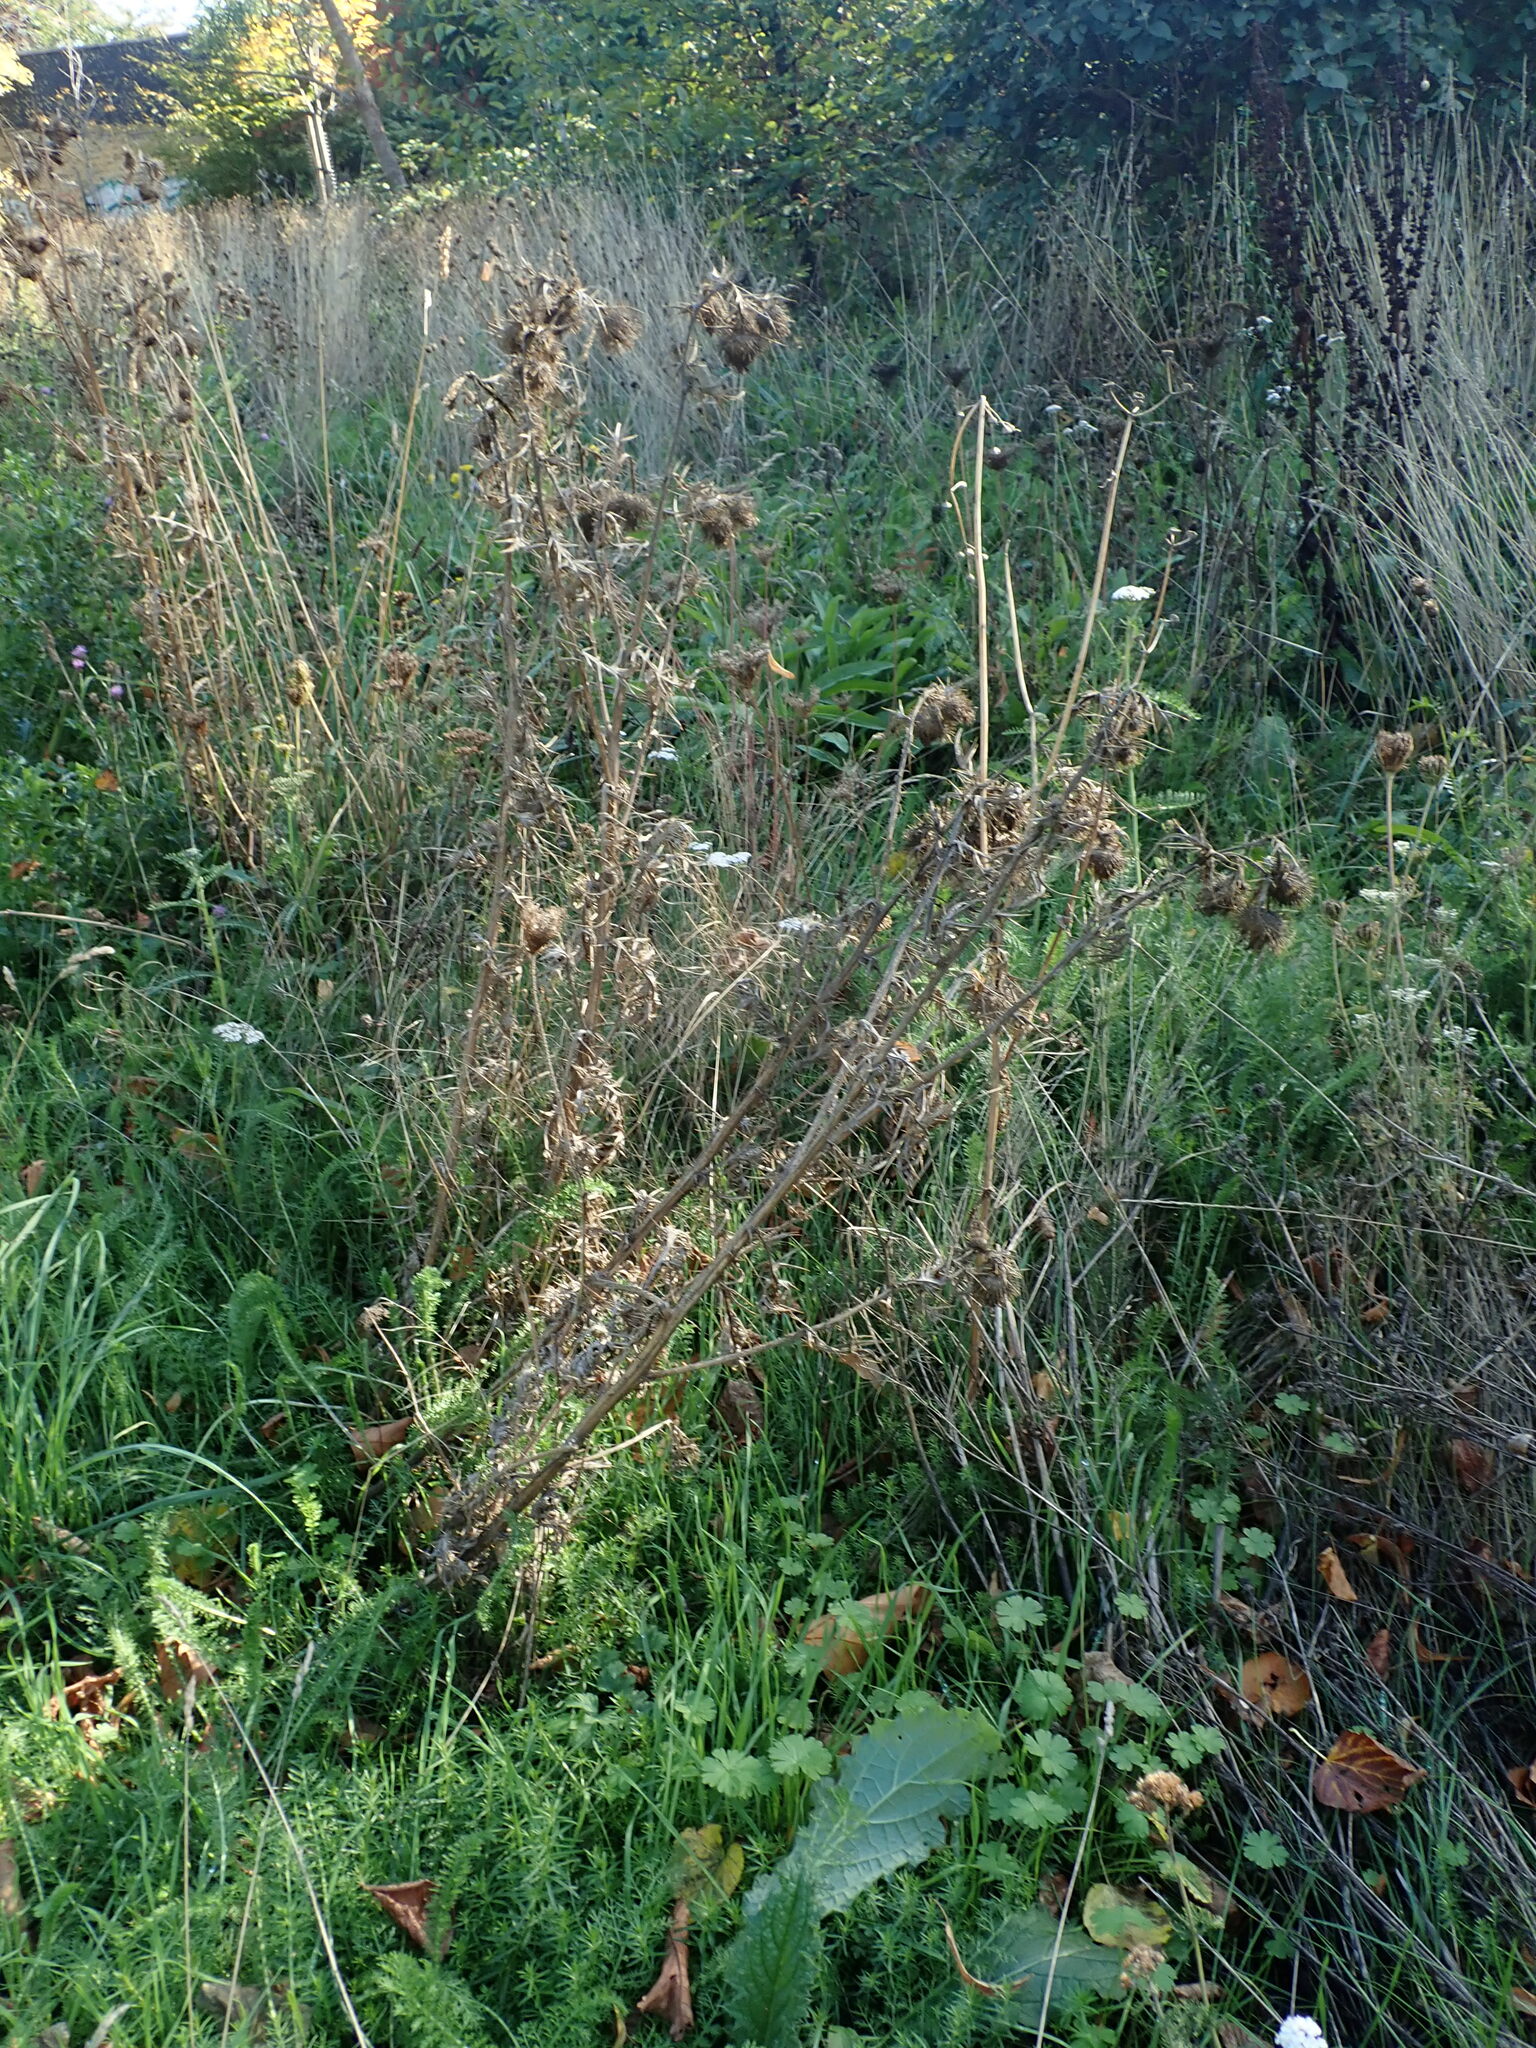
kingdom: Plantae
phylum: Tracheophyta
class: Magnoliopsida
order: Asterales
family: Asteraceae
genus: Cirsium
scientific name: Cirsium vulgare
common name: Bull thistle
